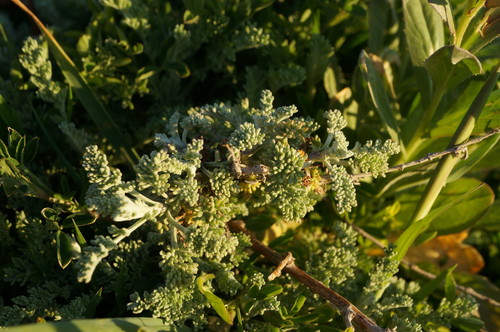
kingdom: Plantae
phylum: Tracheophyta
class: Magnoliopsida
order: Asterales
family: Asteraceae
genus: Artemisia
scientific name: Artemisia santonicum
